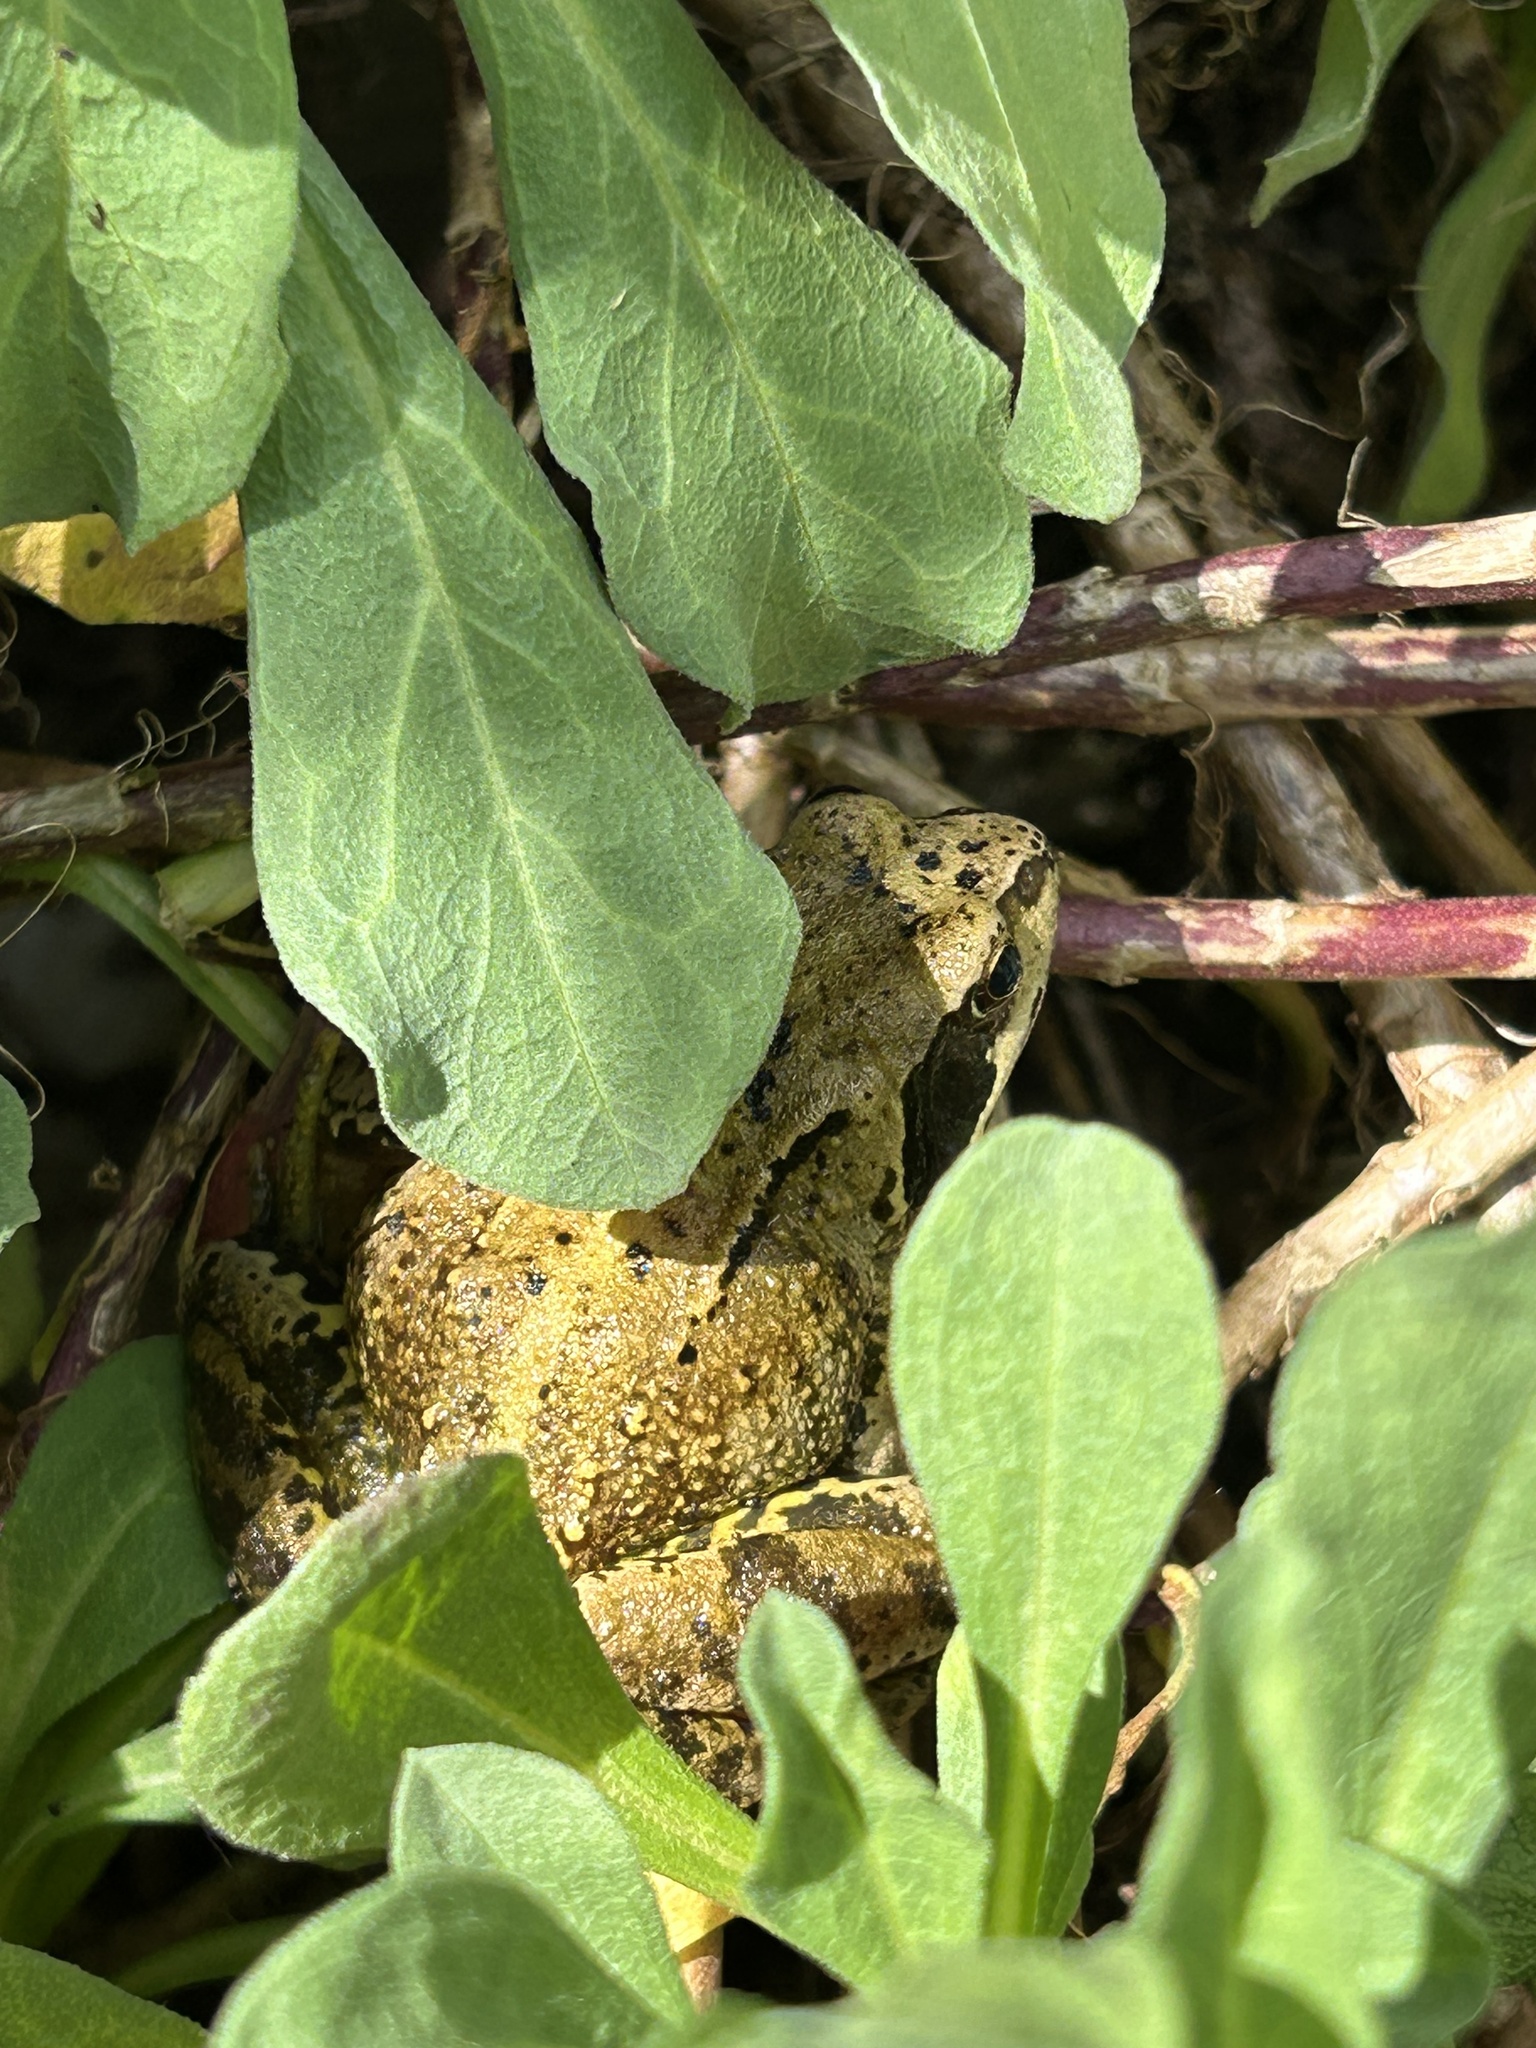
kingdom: Animalia
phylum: Chordata
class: Amphibia
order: Anura
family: Ranidae
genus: Rana
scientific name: Rana temporaria
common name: Common frog
